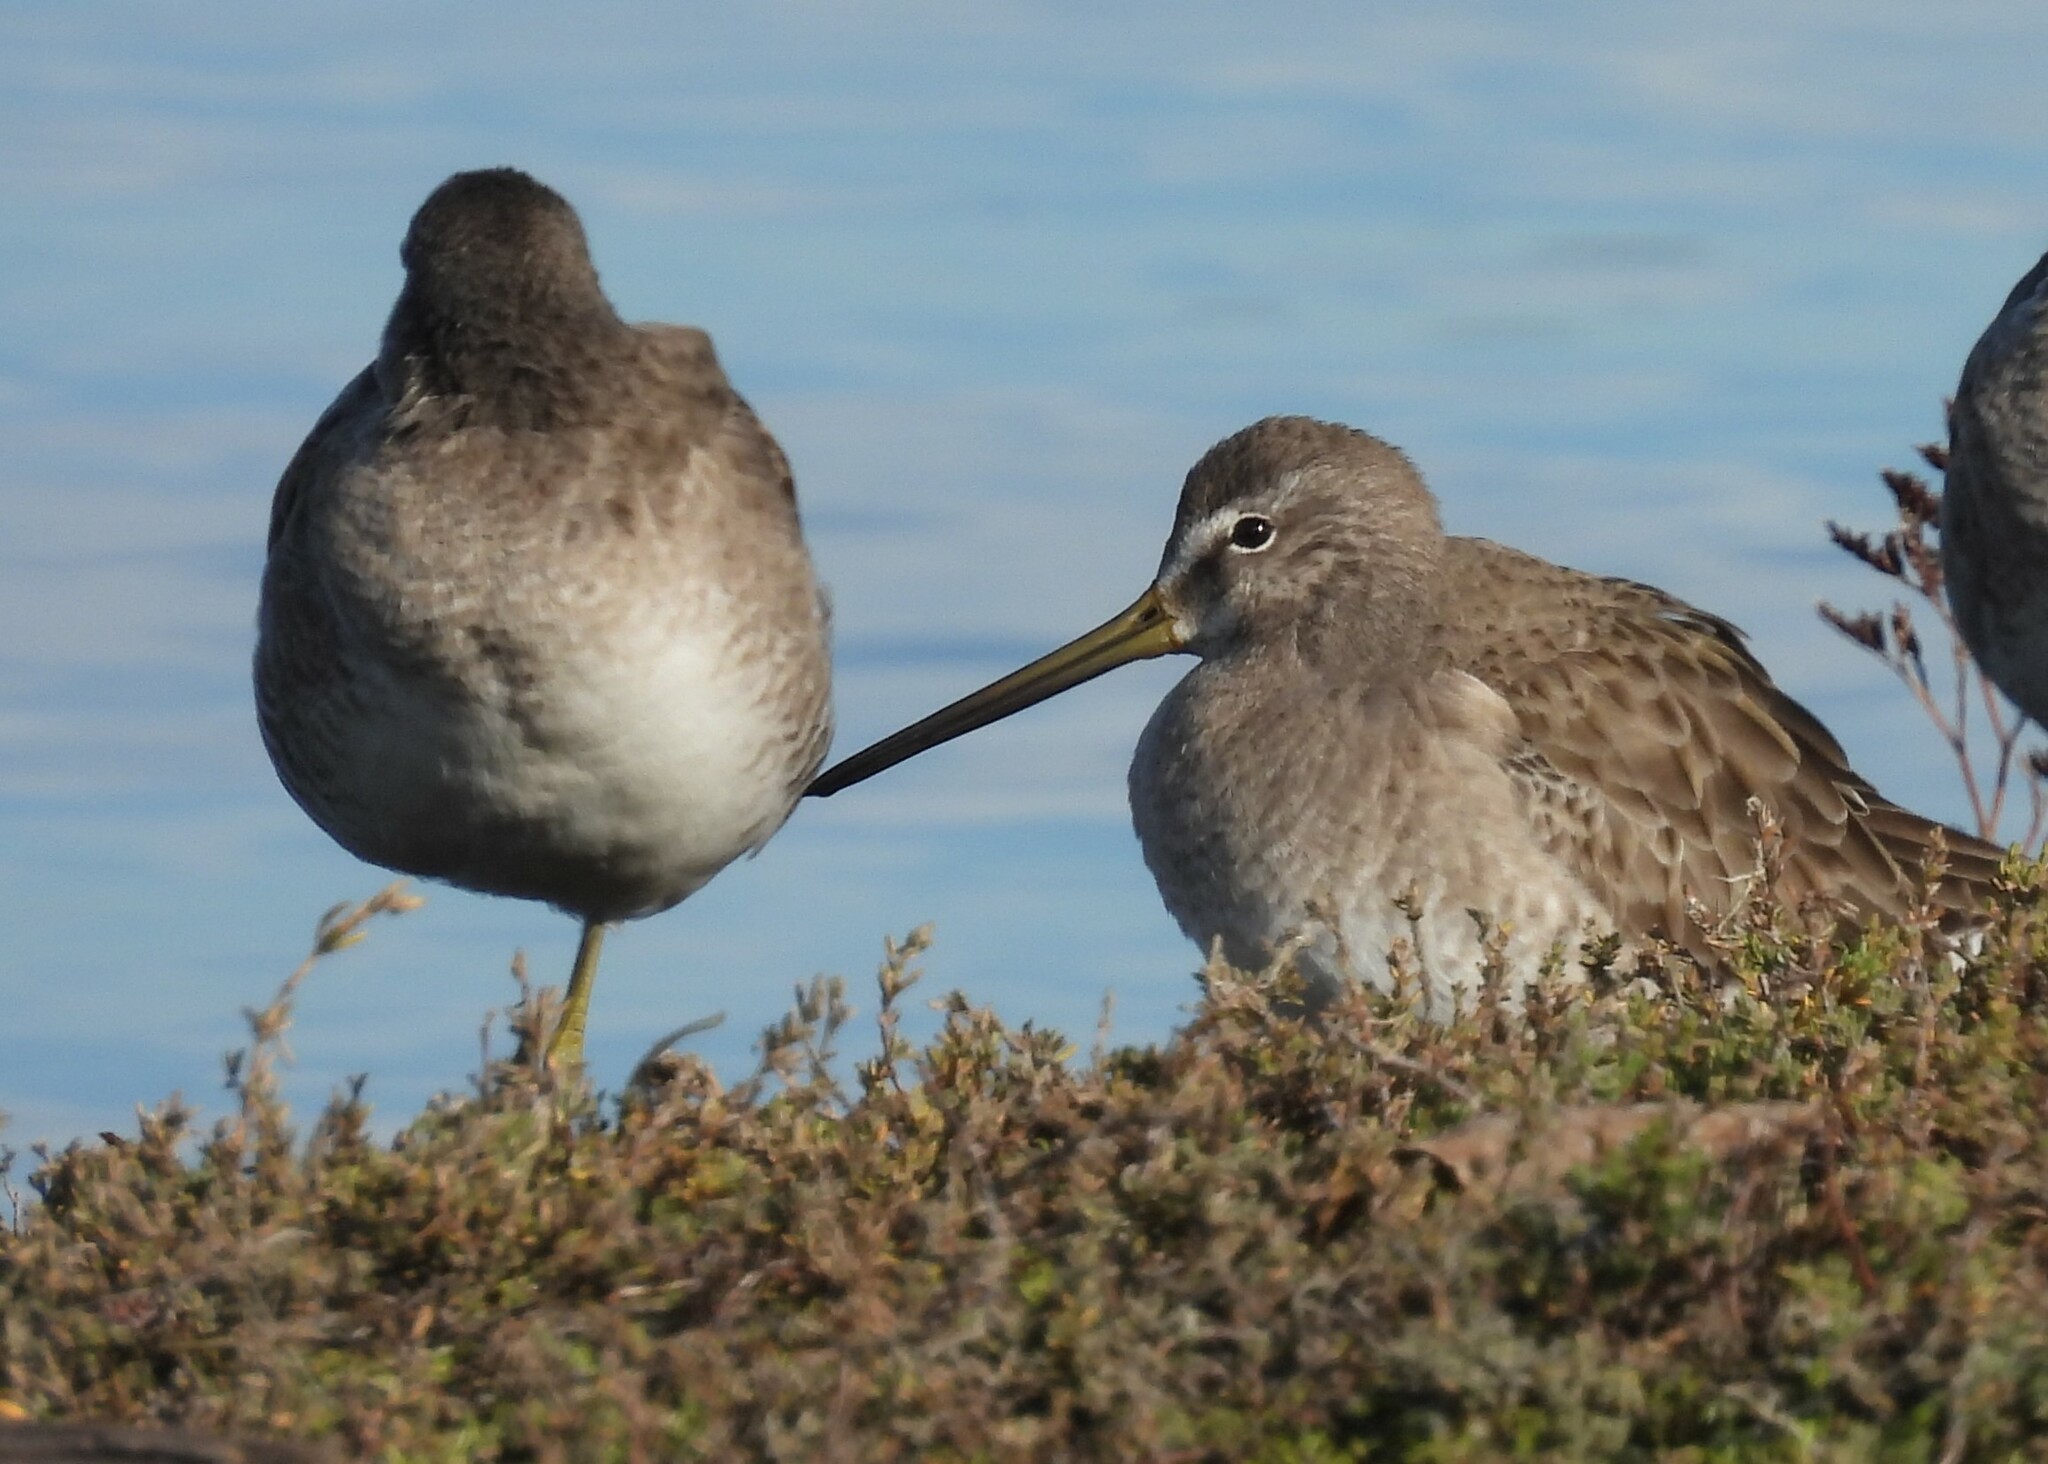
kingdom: Animalia
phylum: Chordata
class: Aves
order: Charadriiformes
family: Scolopacidae
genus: Limnodromus
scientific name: Limnodromus scolopaceus
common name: Long-billed dowitcher
